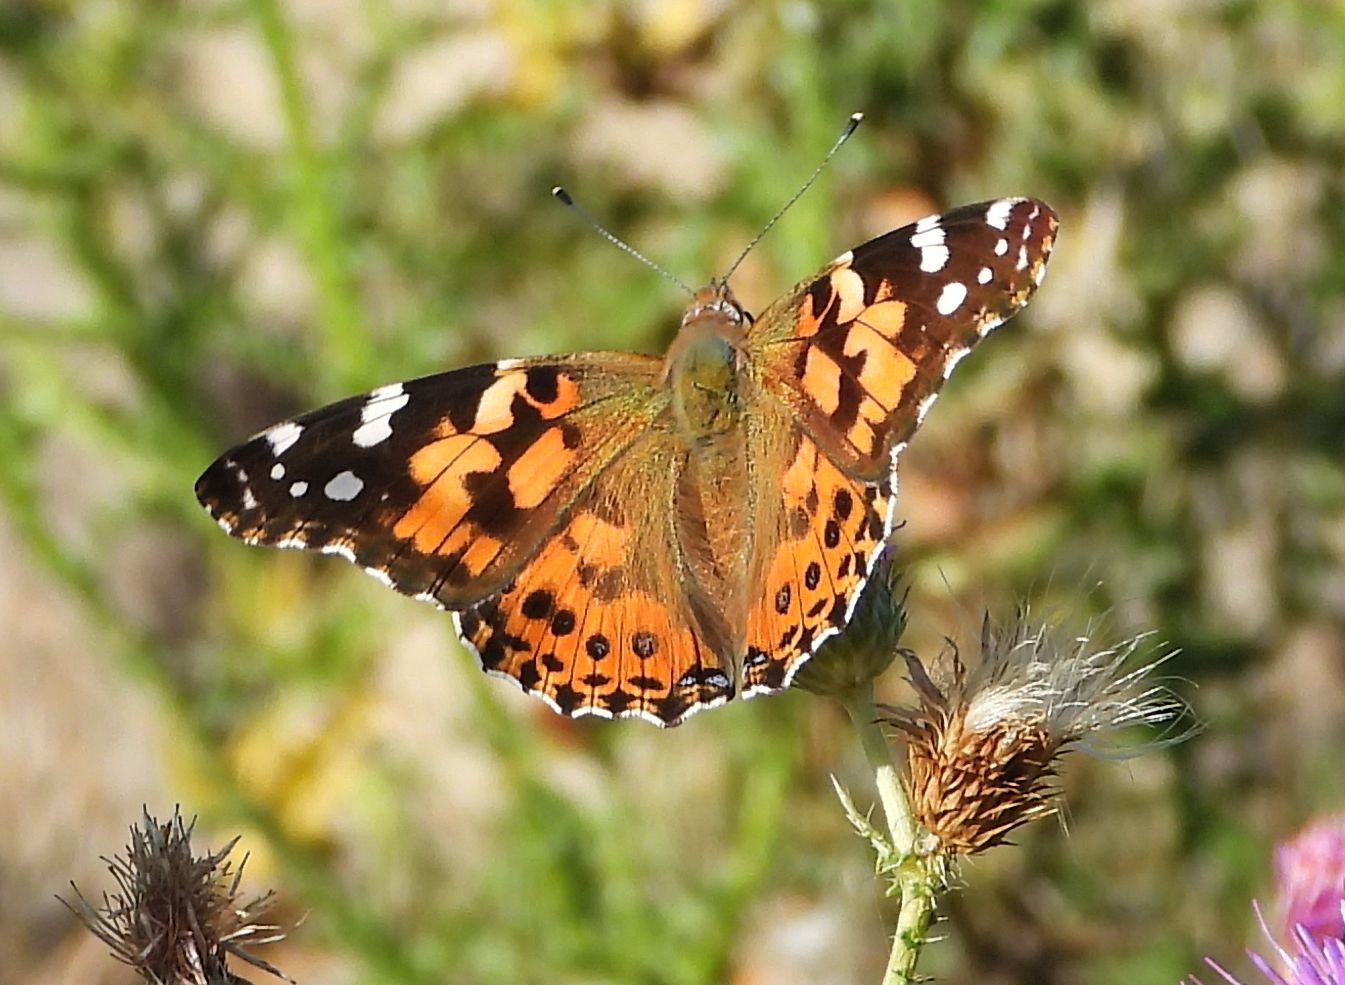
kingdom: Animalia
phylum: Arthropoda
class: Insecta
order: Lepidoptera
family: Nymphalidae
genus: Vanessa
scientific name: Vanessa cardui
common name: Painted lady
